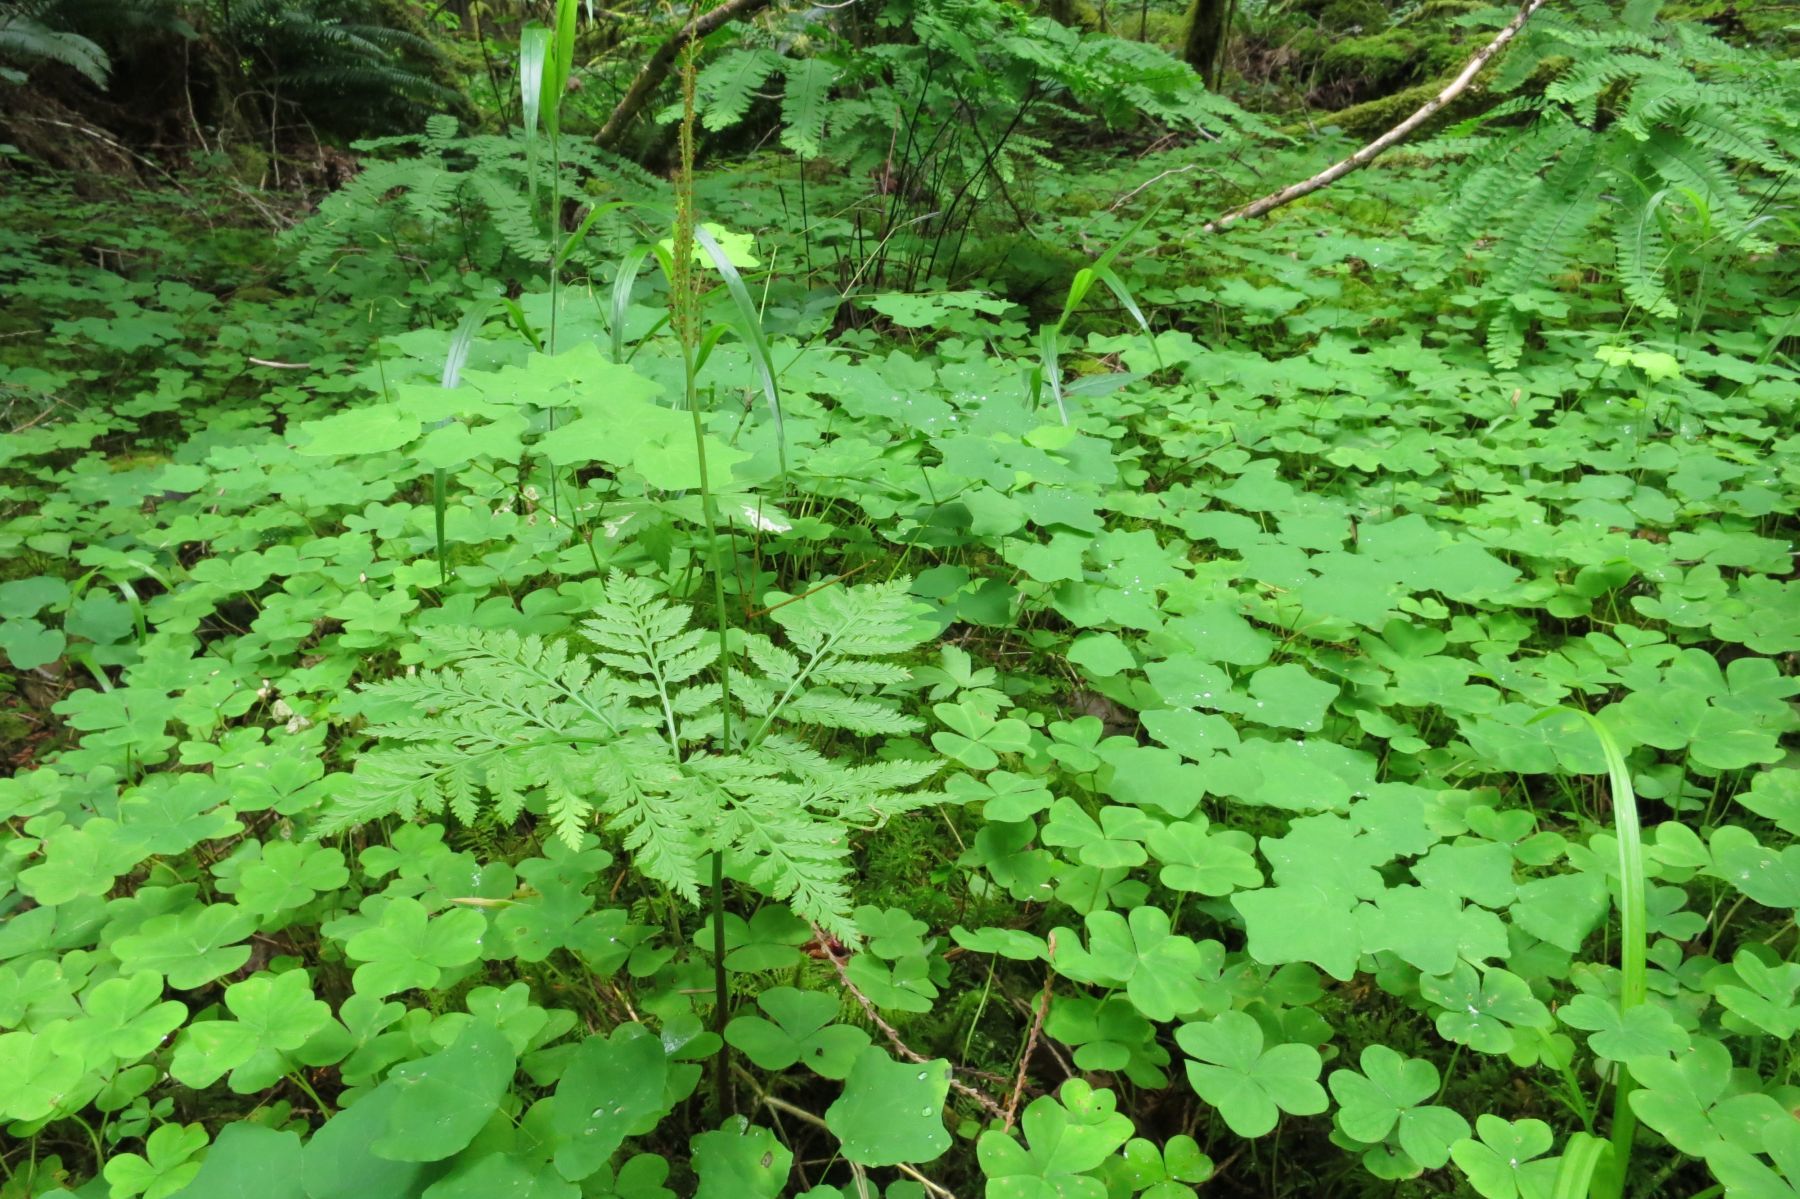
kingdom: Plantae
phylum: Tracheophyta
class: Polypodiopsida
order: Ophioglossales
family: Ophioglossaceae
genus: Botrypus
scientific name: Botrypus virginianus
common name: Common grapefern
